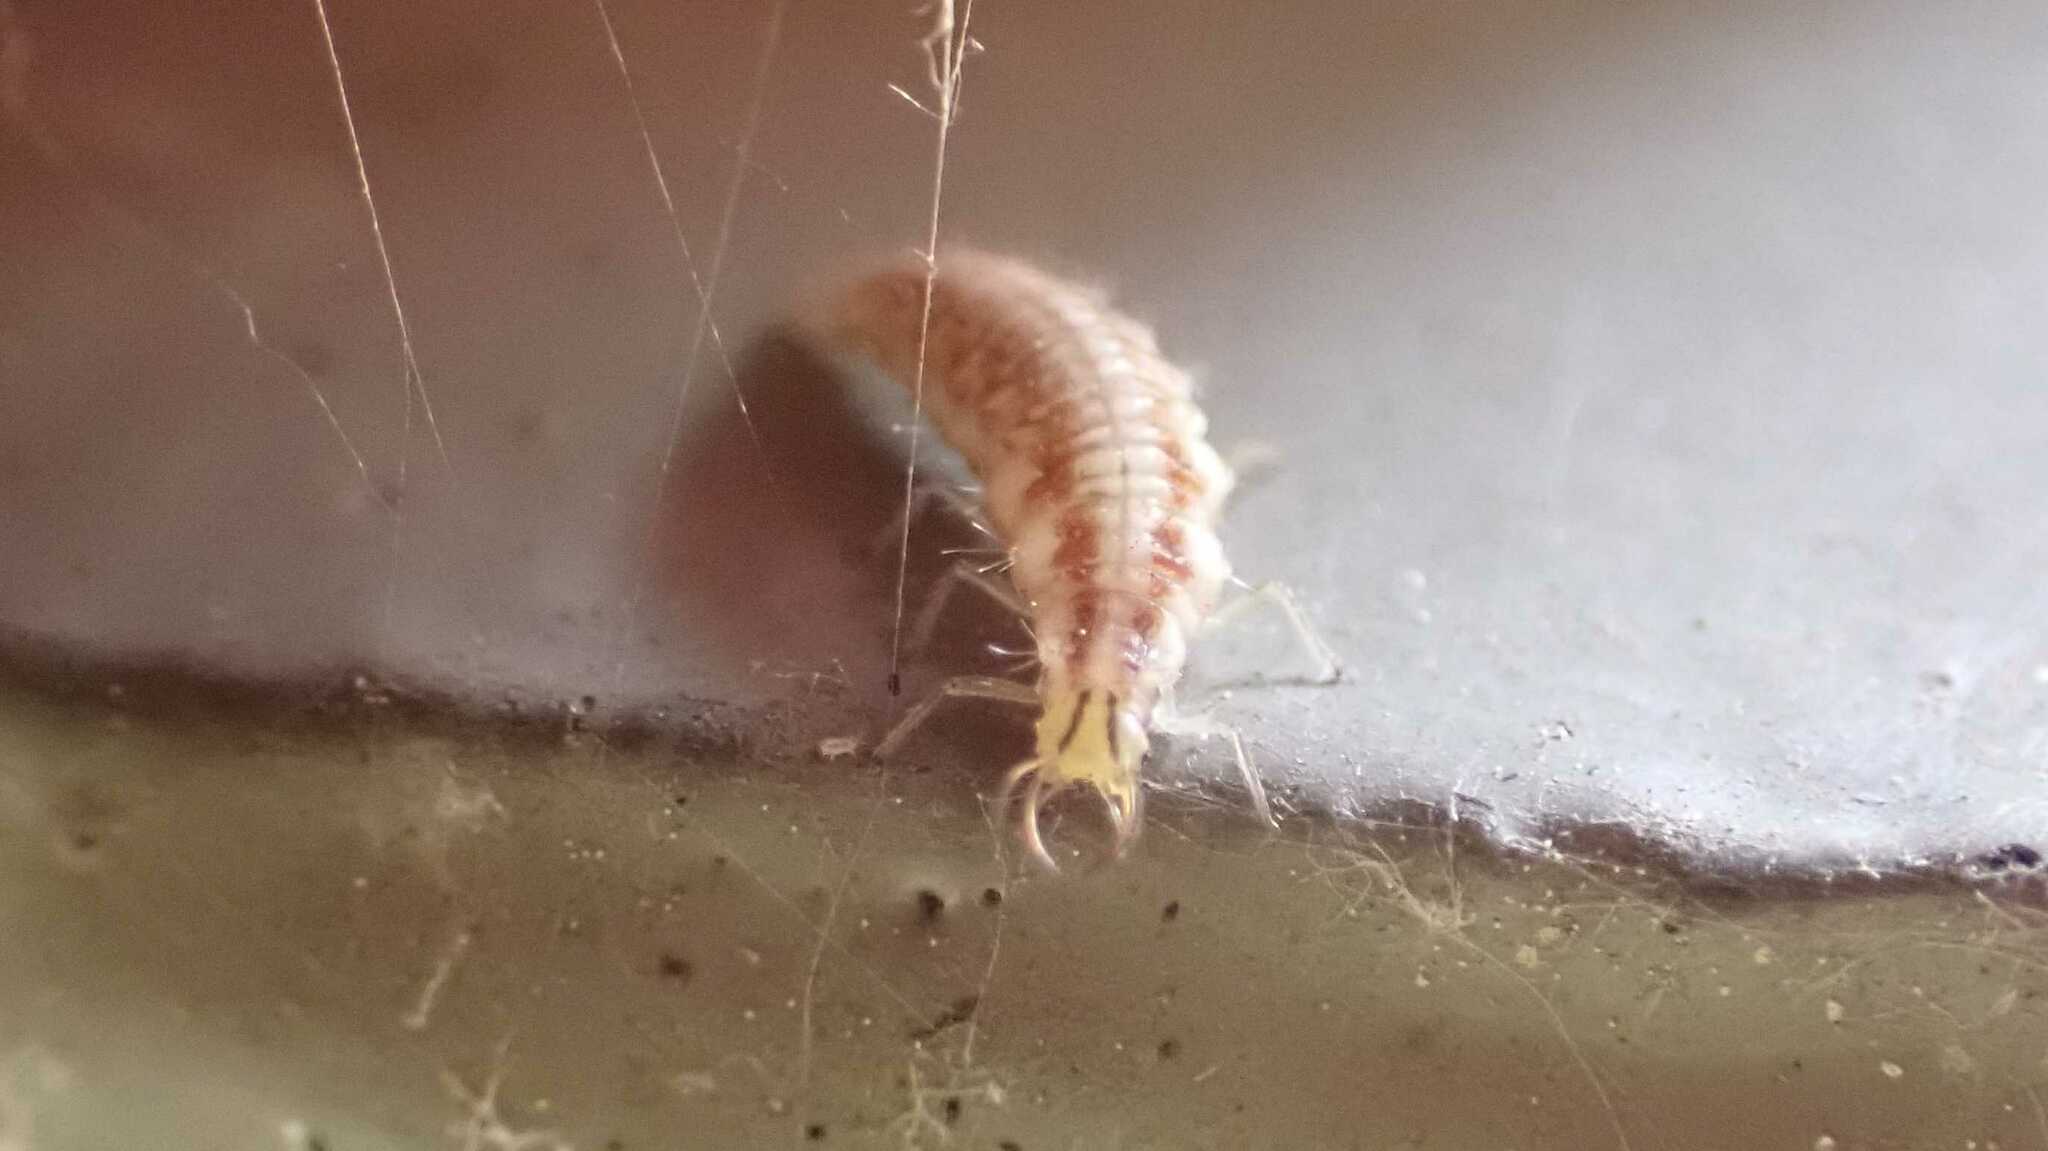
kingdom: Animalia
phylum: Arthropoda
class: Insecta
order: Neuroptera
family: Chrysopidae
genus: Chrysoperla
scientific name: Chrysoperla
